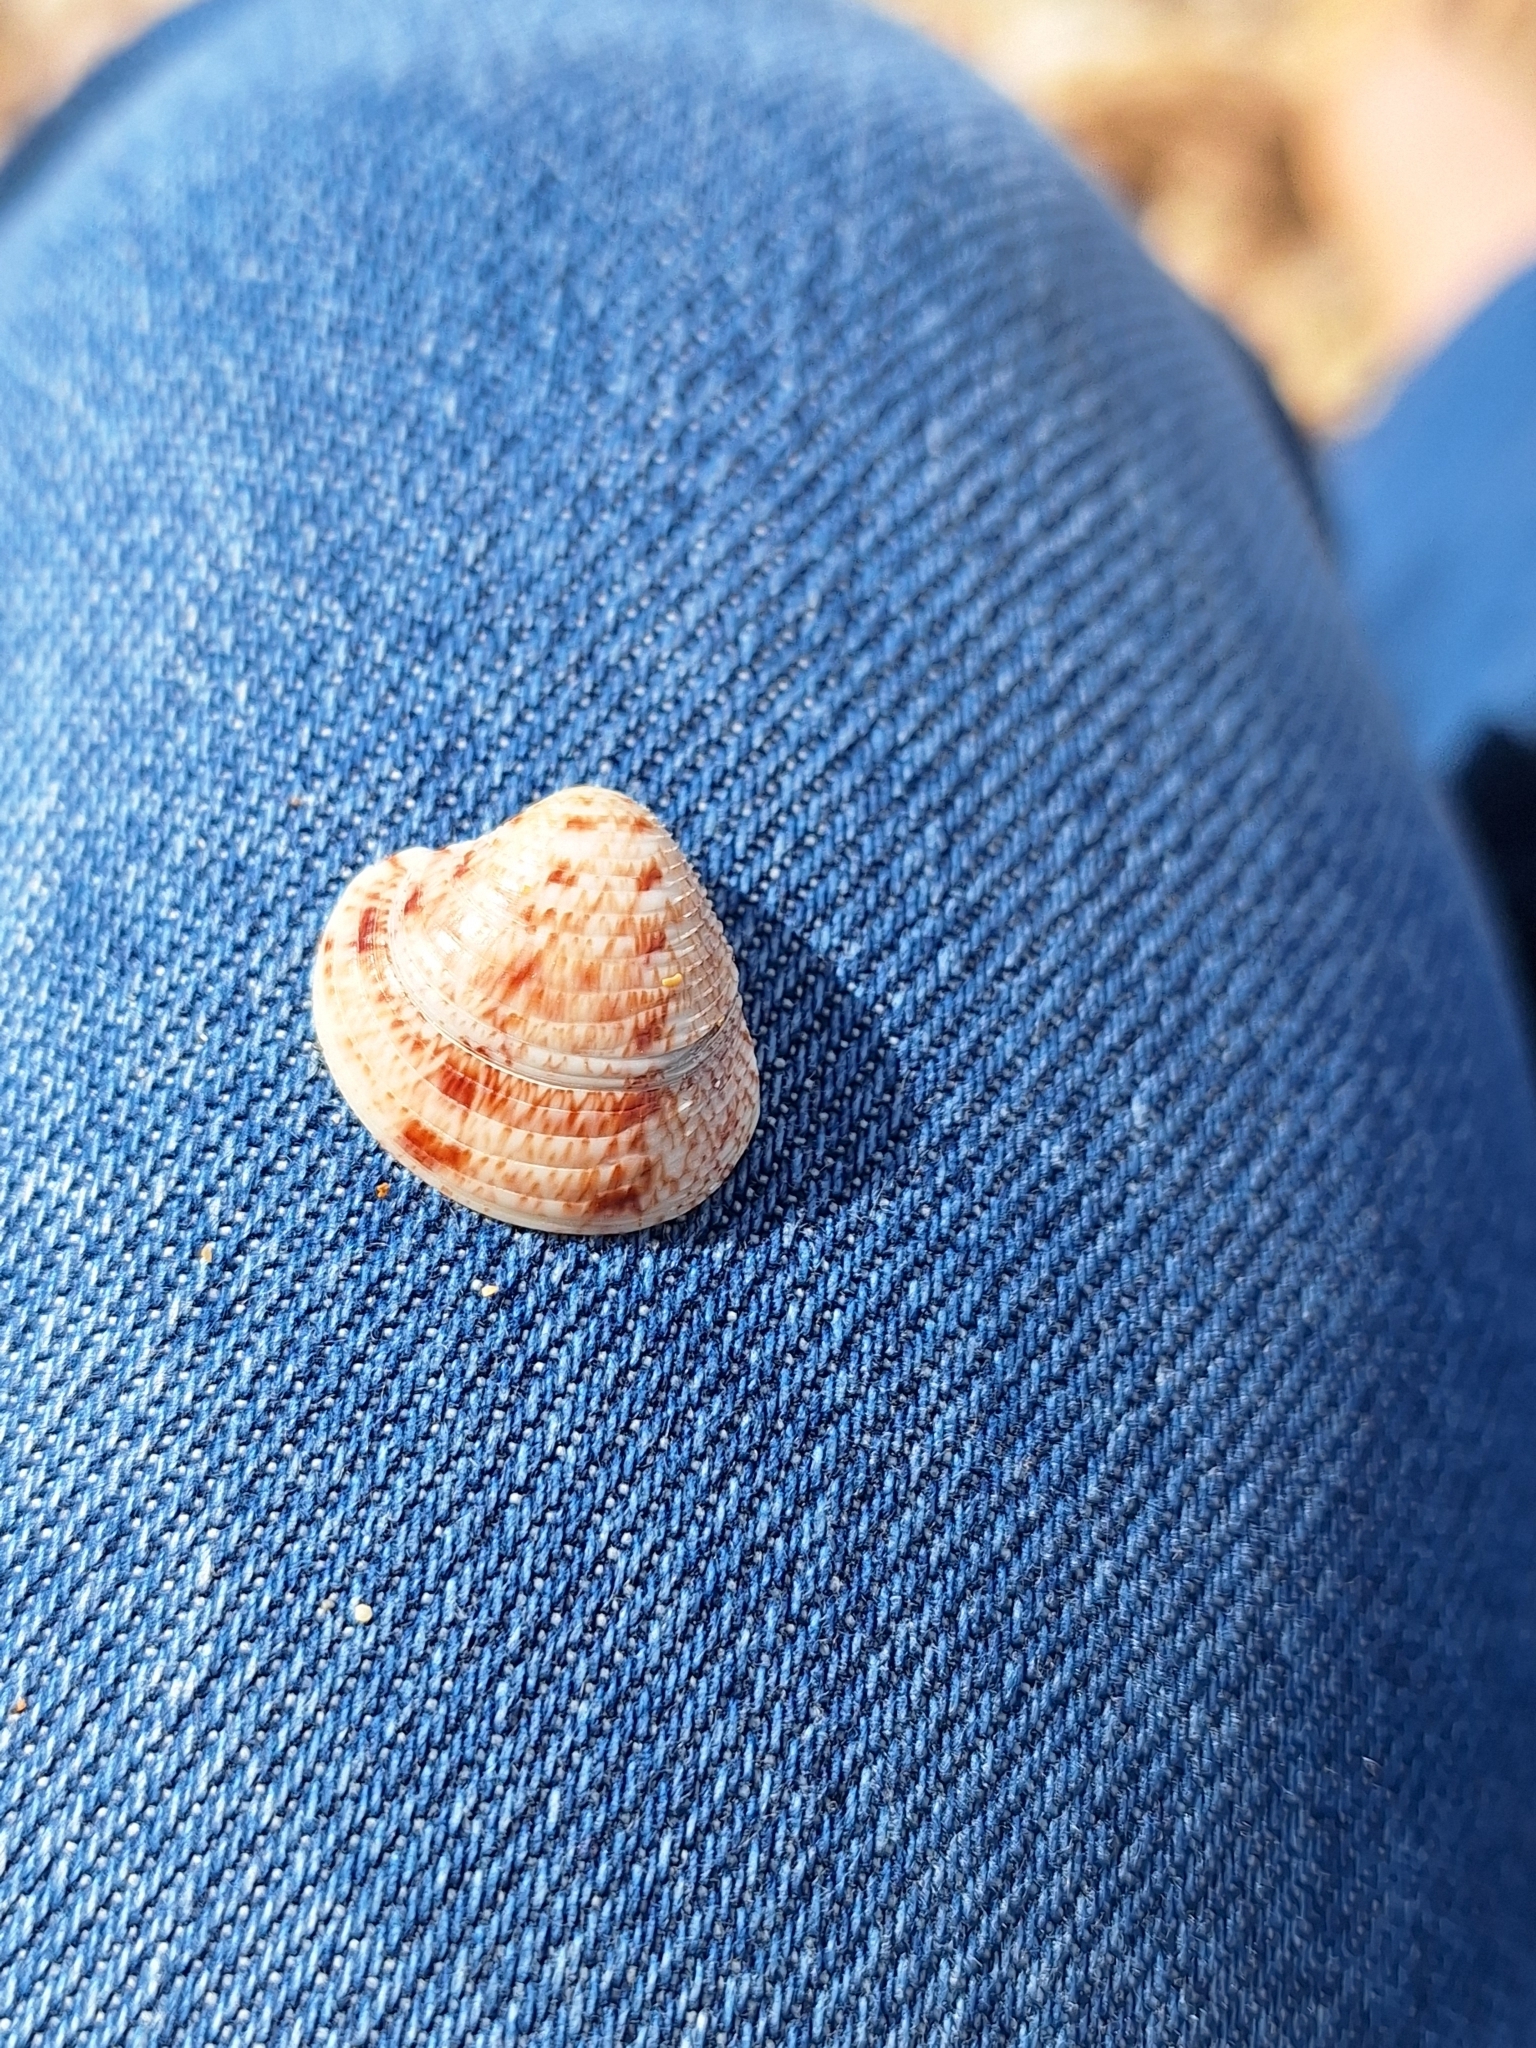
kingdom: Animalia
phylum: Mollusca
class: Bivalvia
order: Venerida
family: Veneridae
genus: Chamelea
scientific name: Chamelea gallina
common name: Chicken venus
